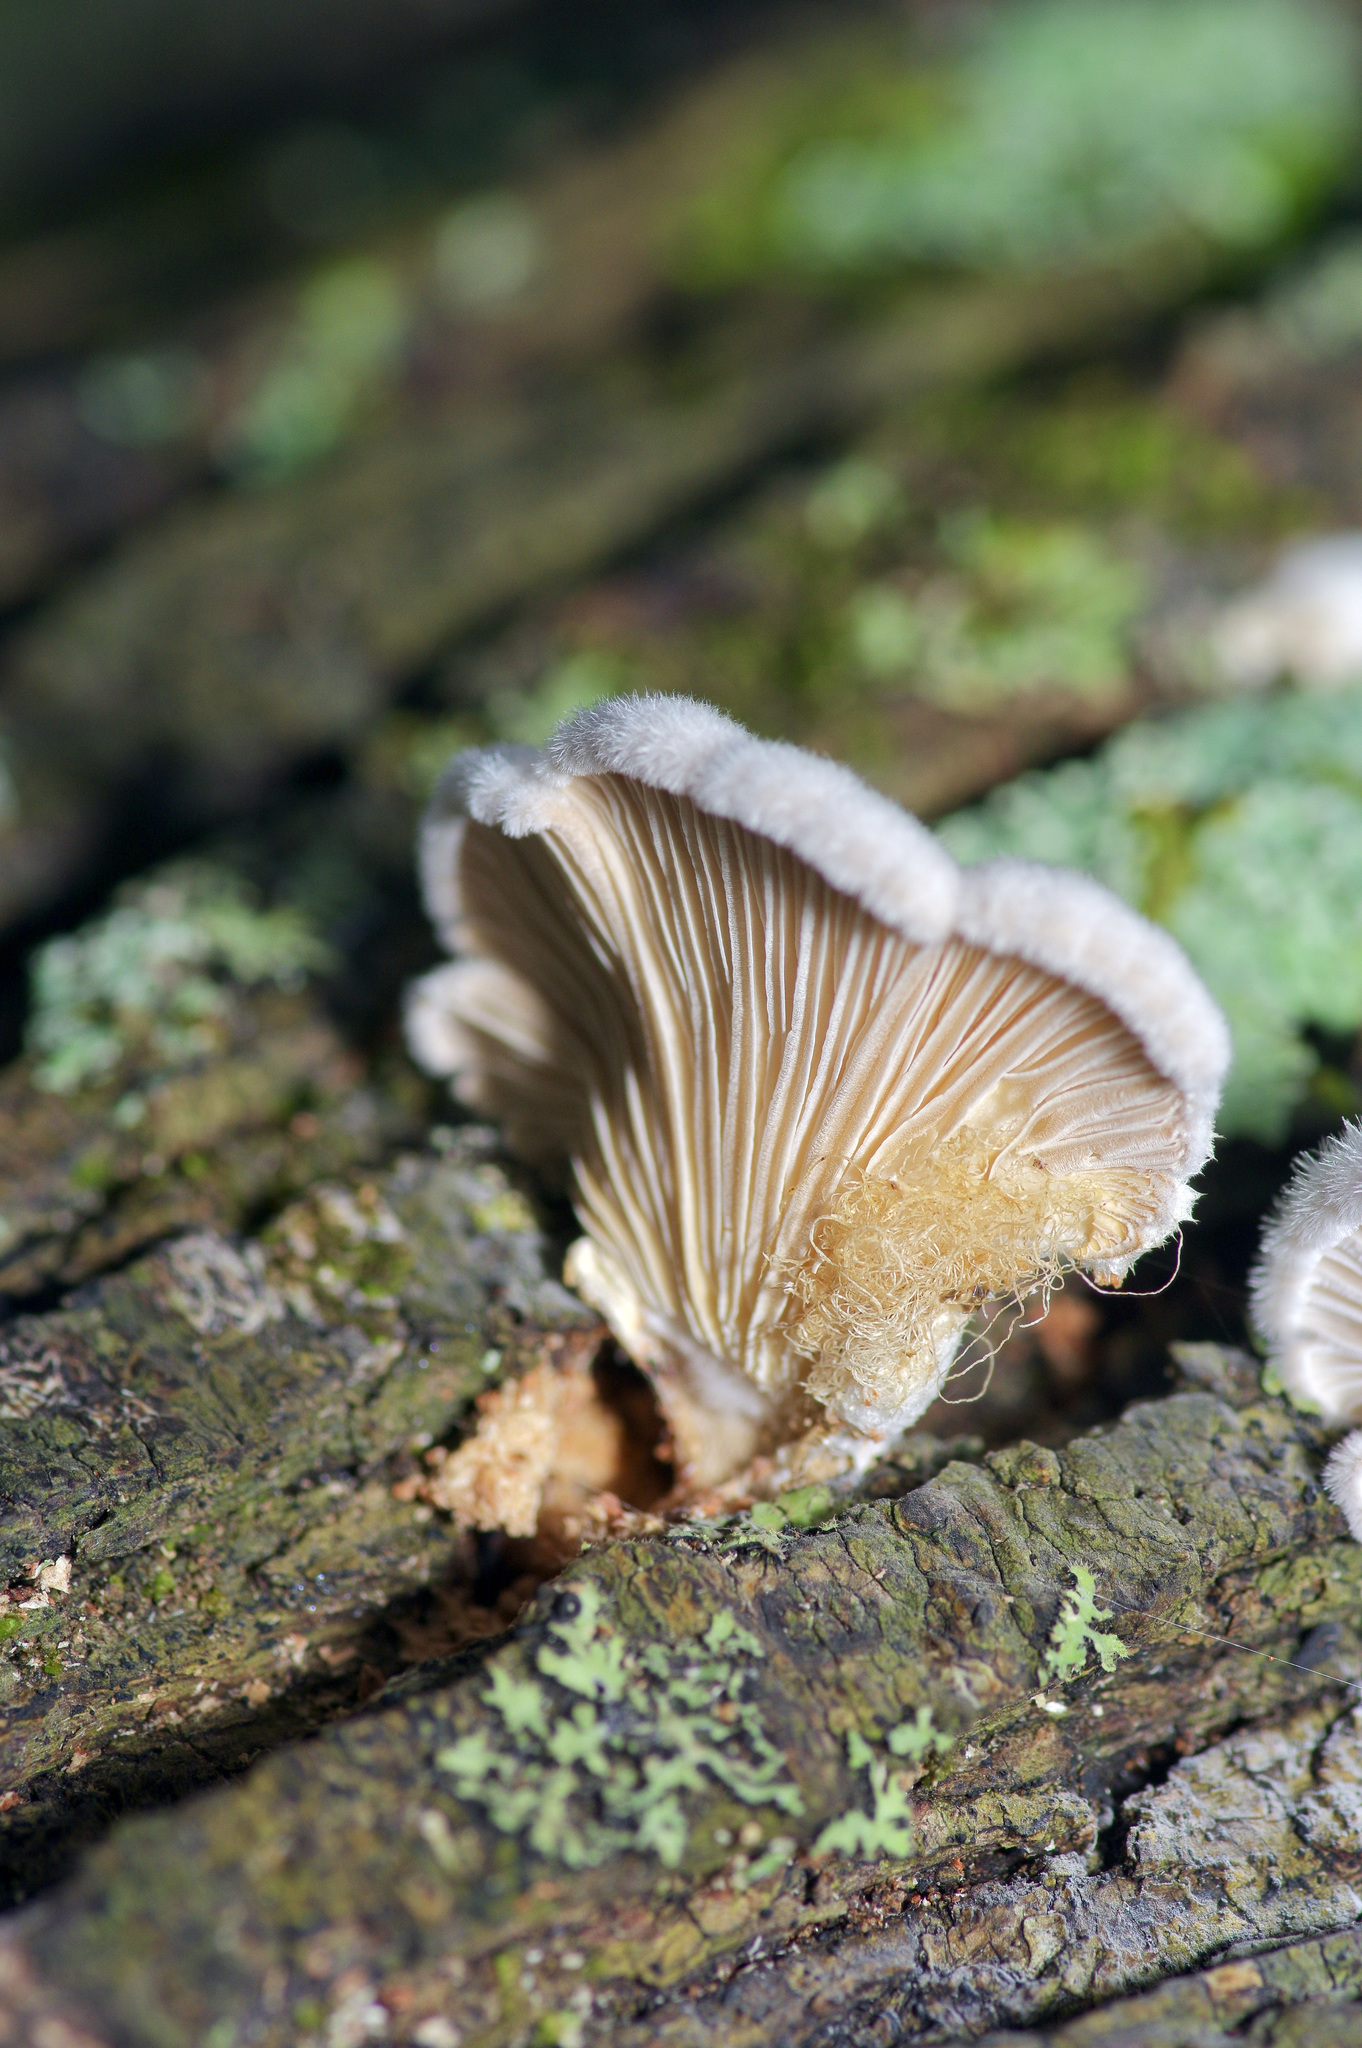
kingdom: Fungi
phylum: Basidiomycota
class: Agaricomycetes
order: Agaricales
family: Schizophyllaceae
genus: Schizophyllum
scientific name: Schizophyllum commune
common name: Common porecrust
